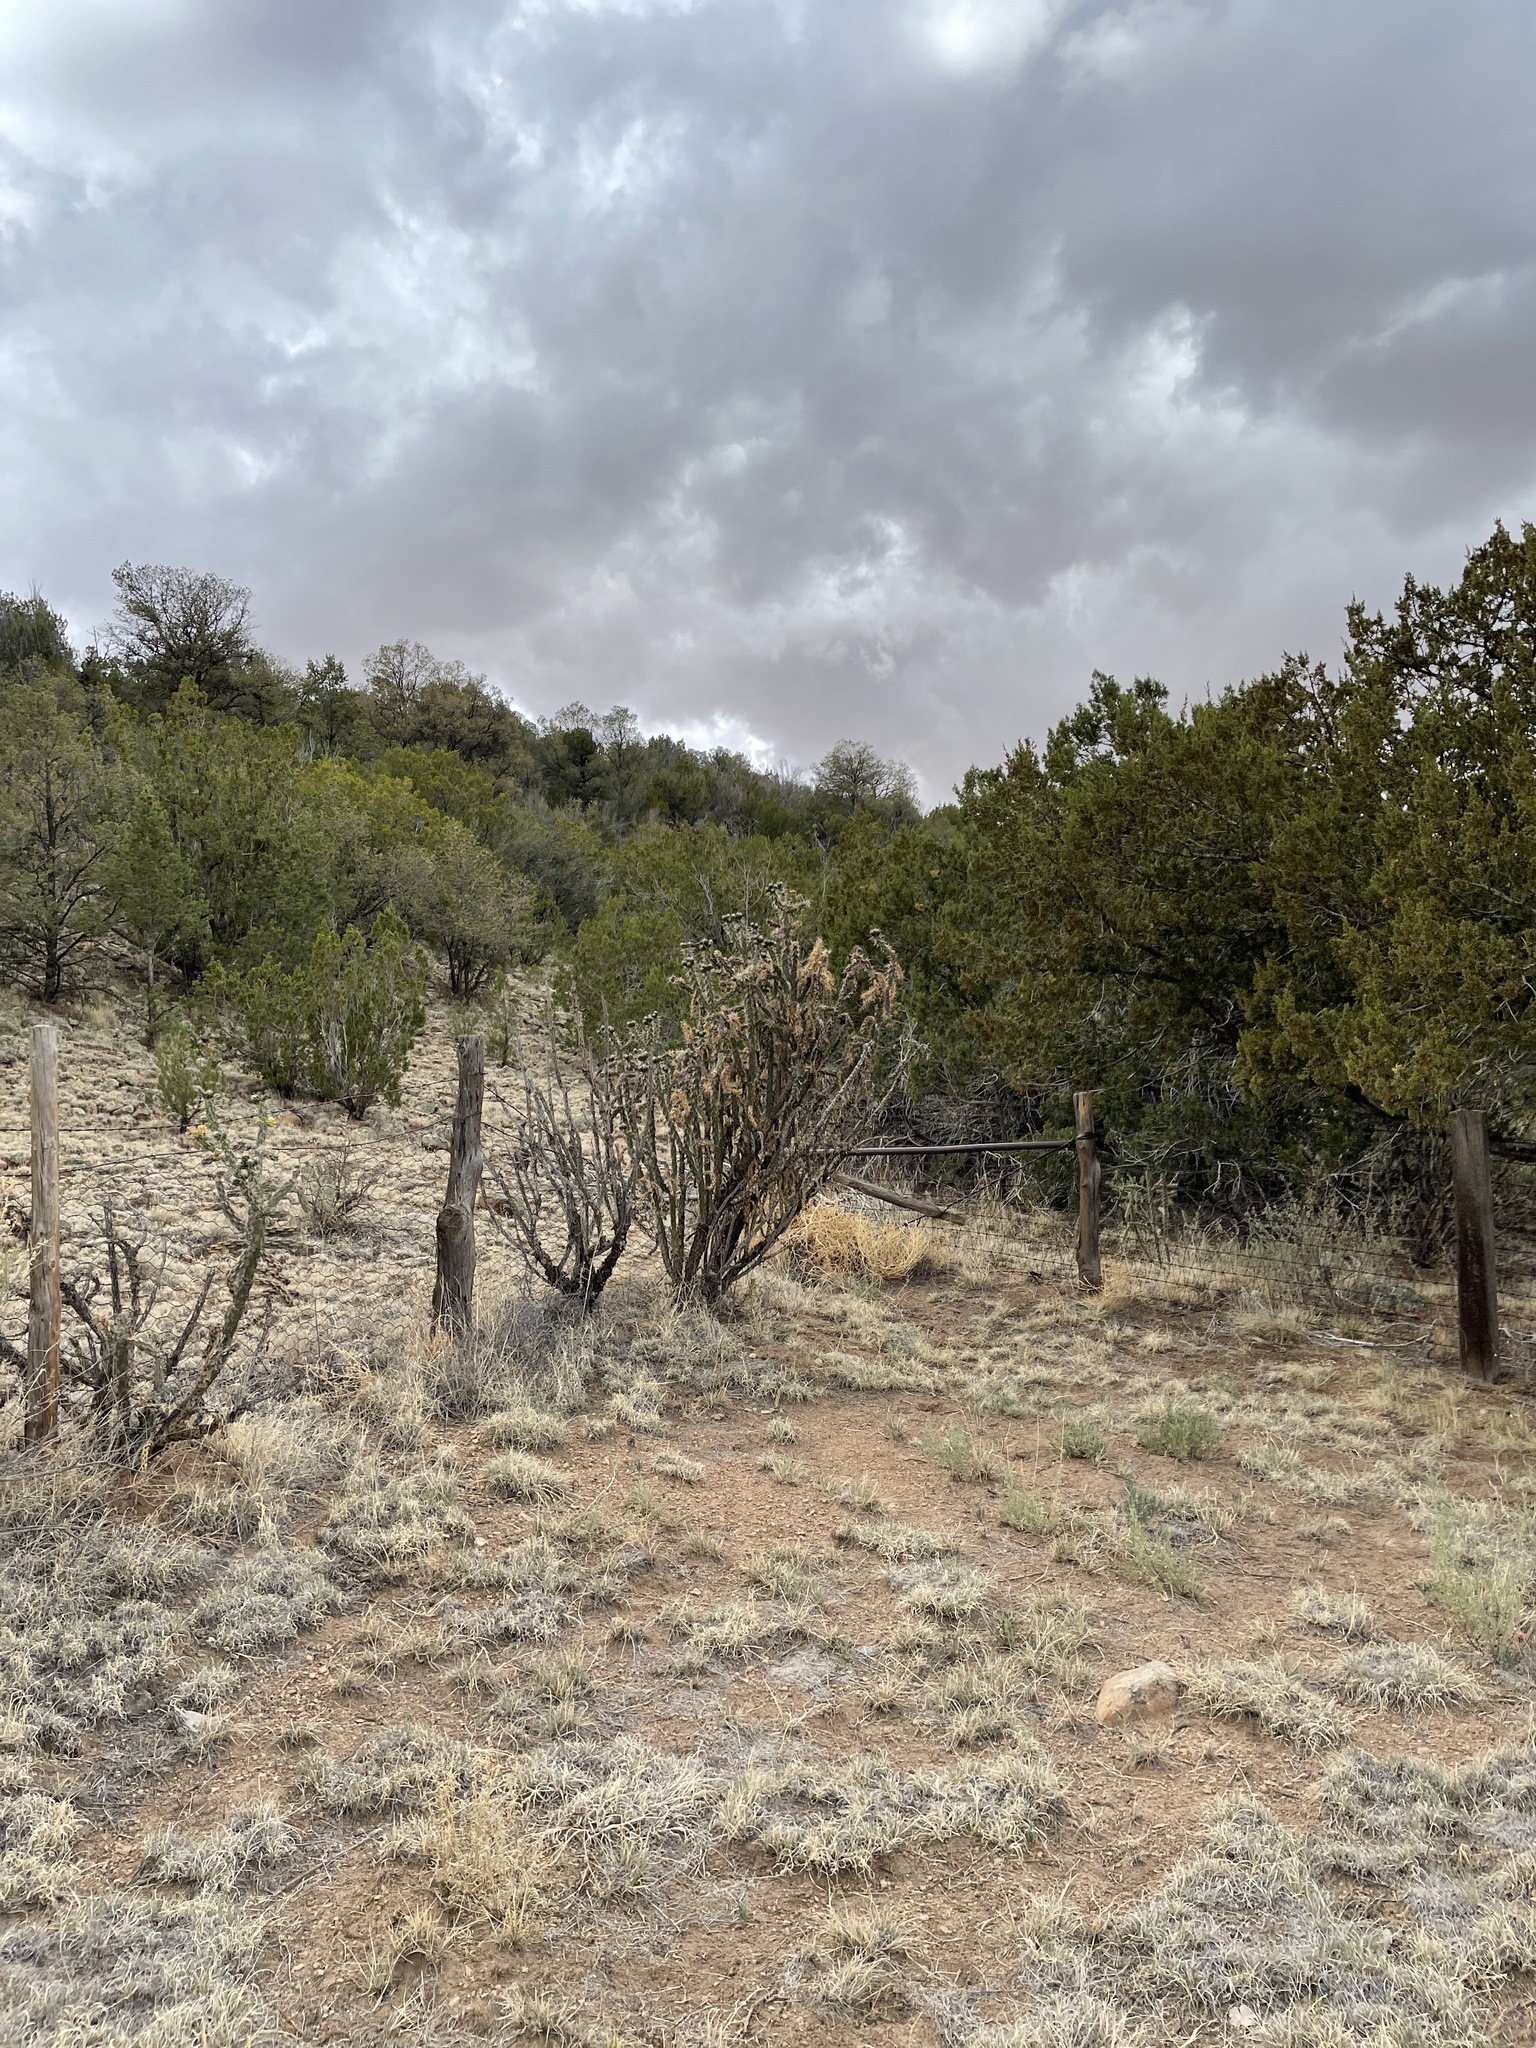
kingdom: Plantae
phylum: Tracheophyta
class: Magnoliopsida
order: Caryophyllales
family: Cactaceae
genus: Cylindropuntia
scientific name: Cylindropuntia imbricata
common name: Candelabrum cactus
